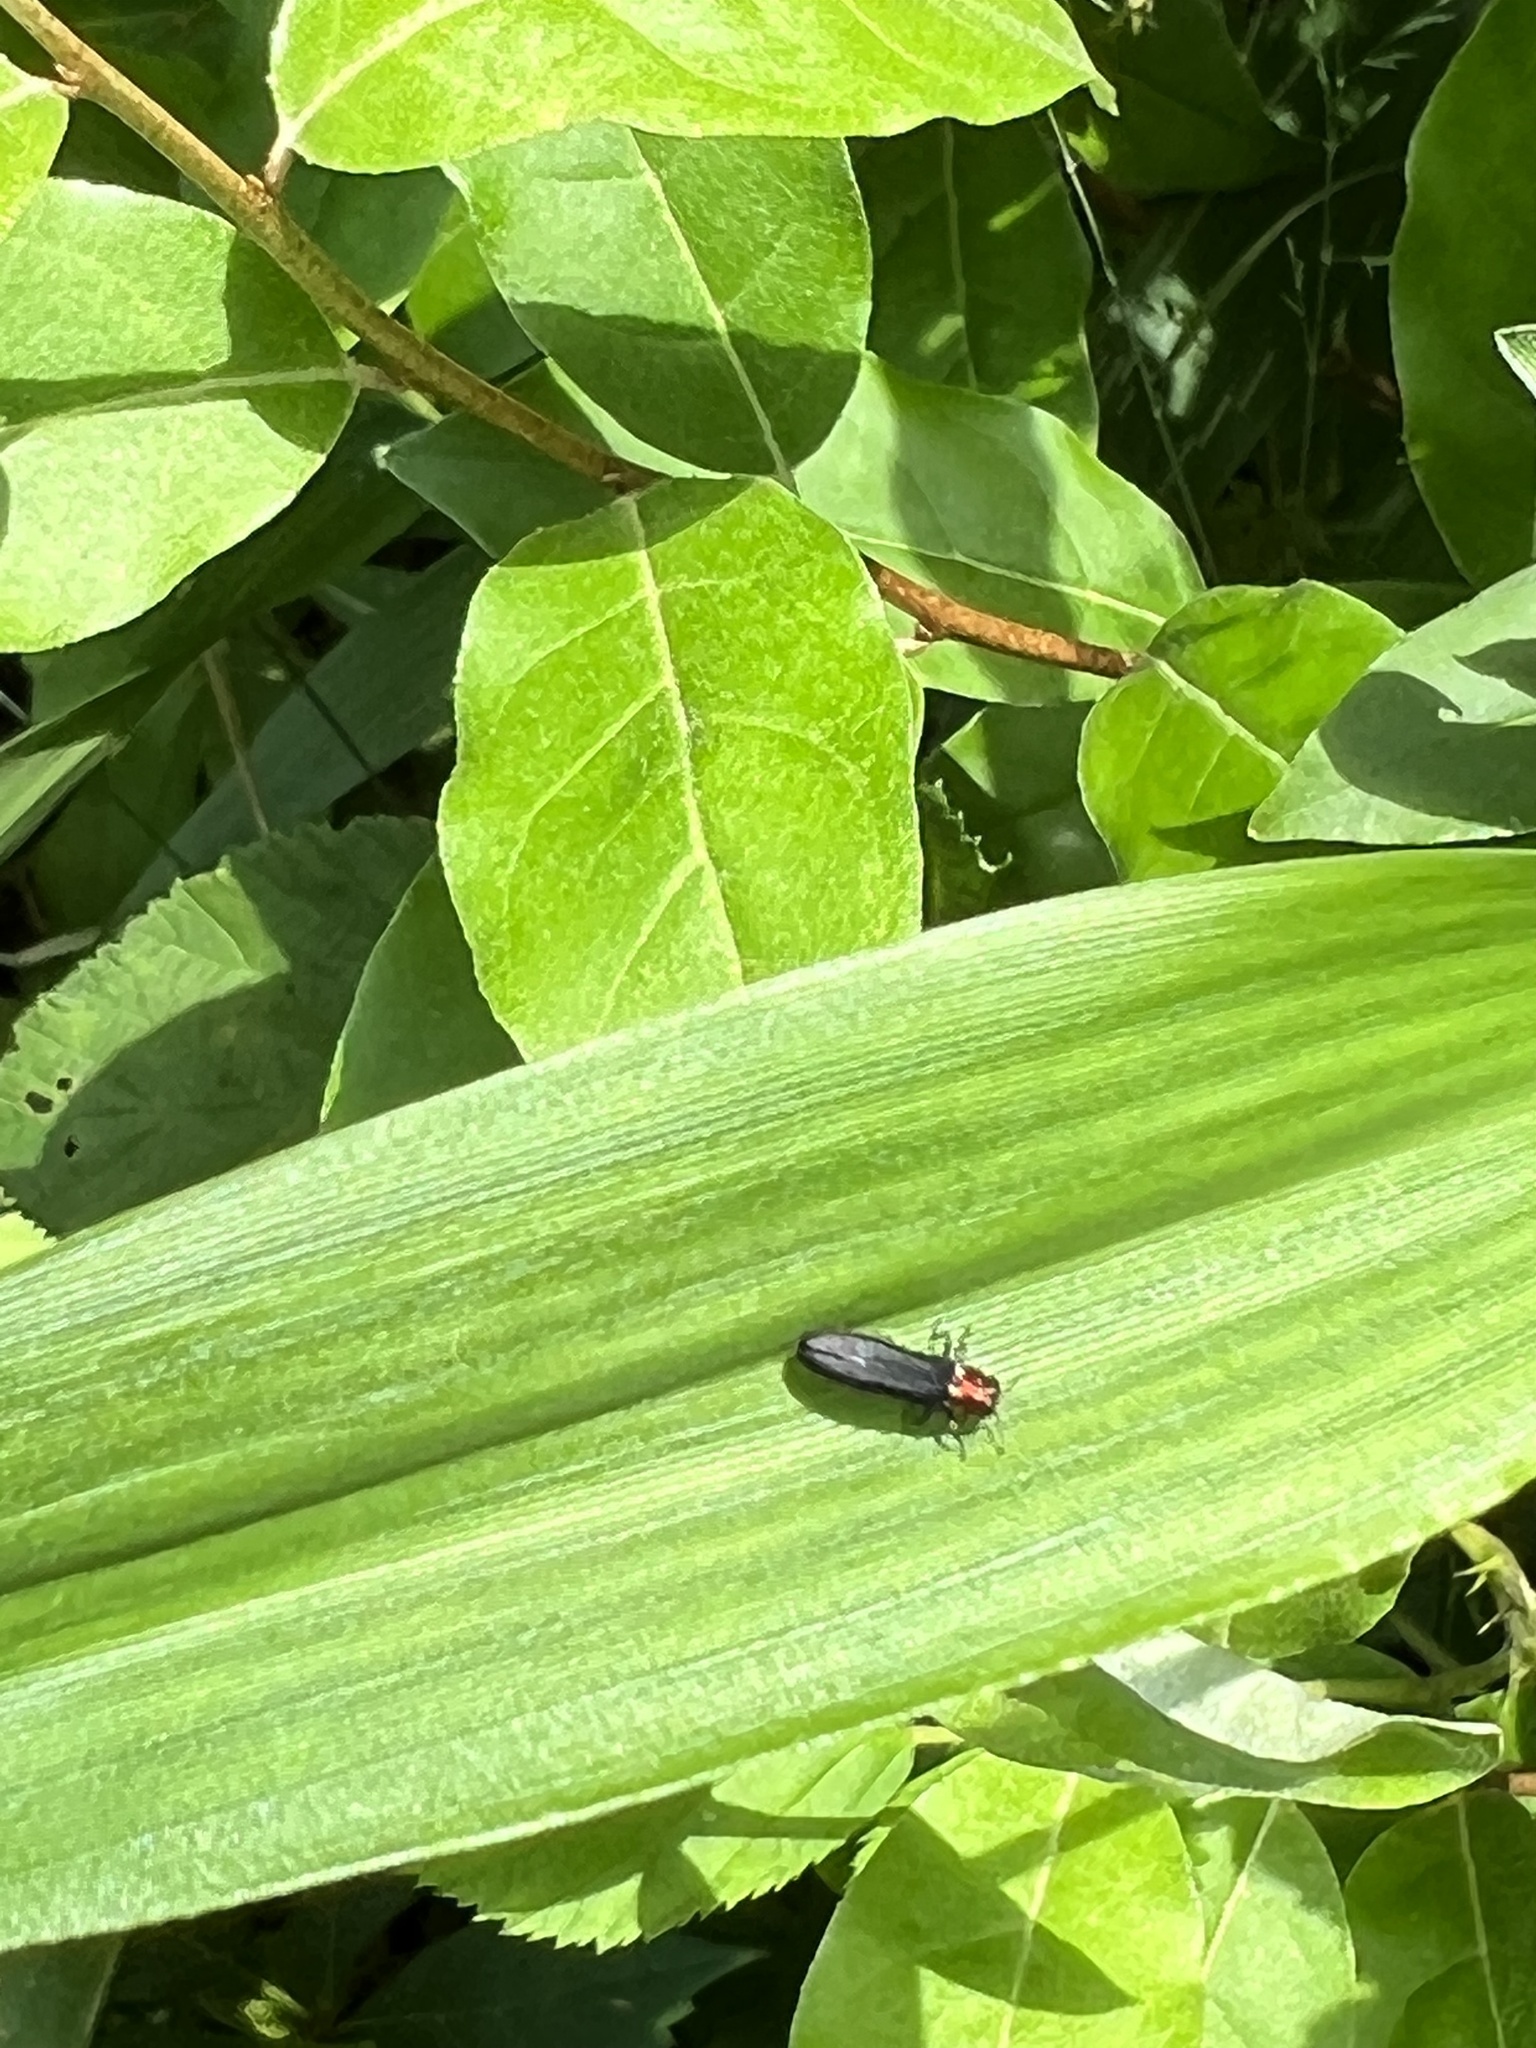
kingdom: Animalia
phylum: Arthropoda
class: Insecta
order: Coleoptera
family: Buprestidae
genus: Agrilus
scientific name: Agrilus ruficollis
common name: Red-necked cane borer beetle
